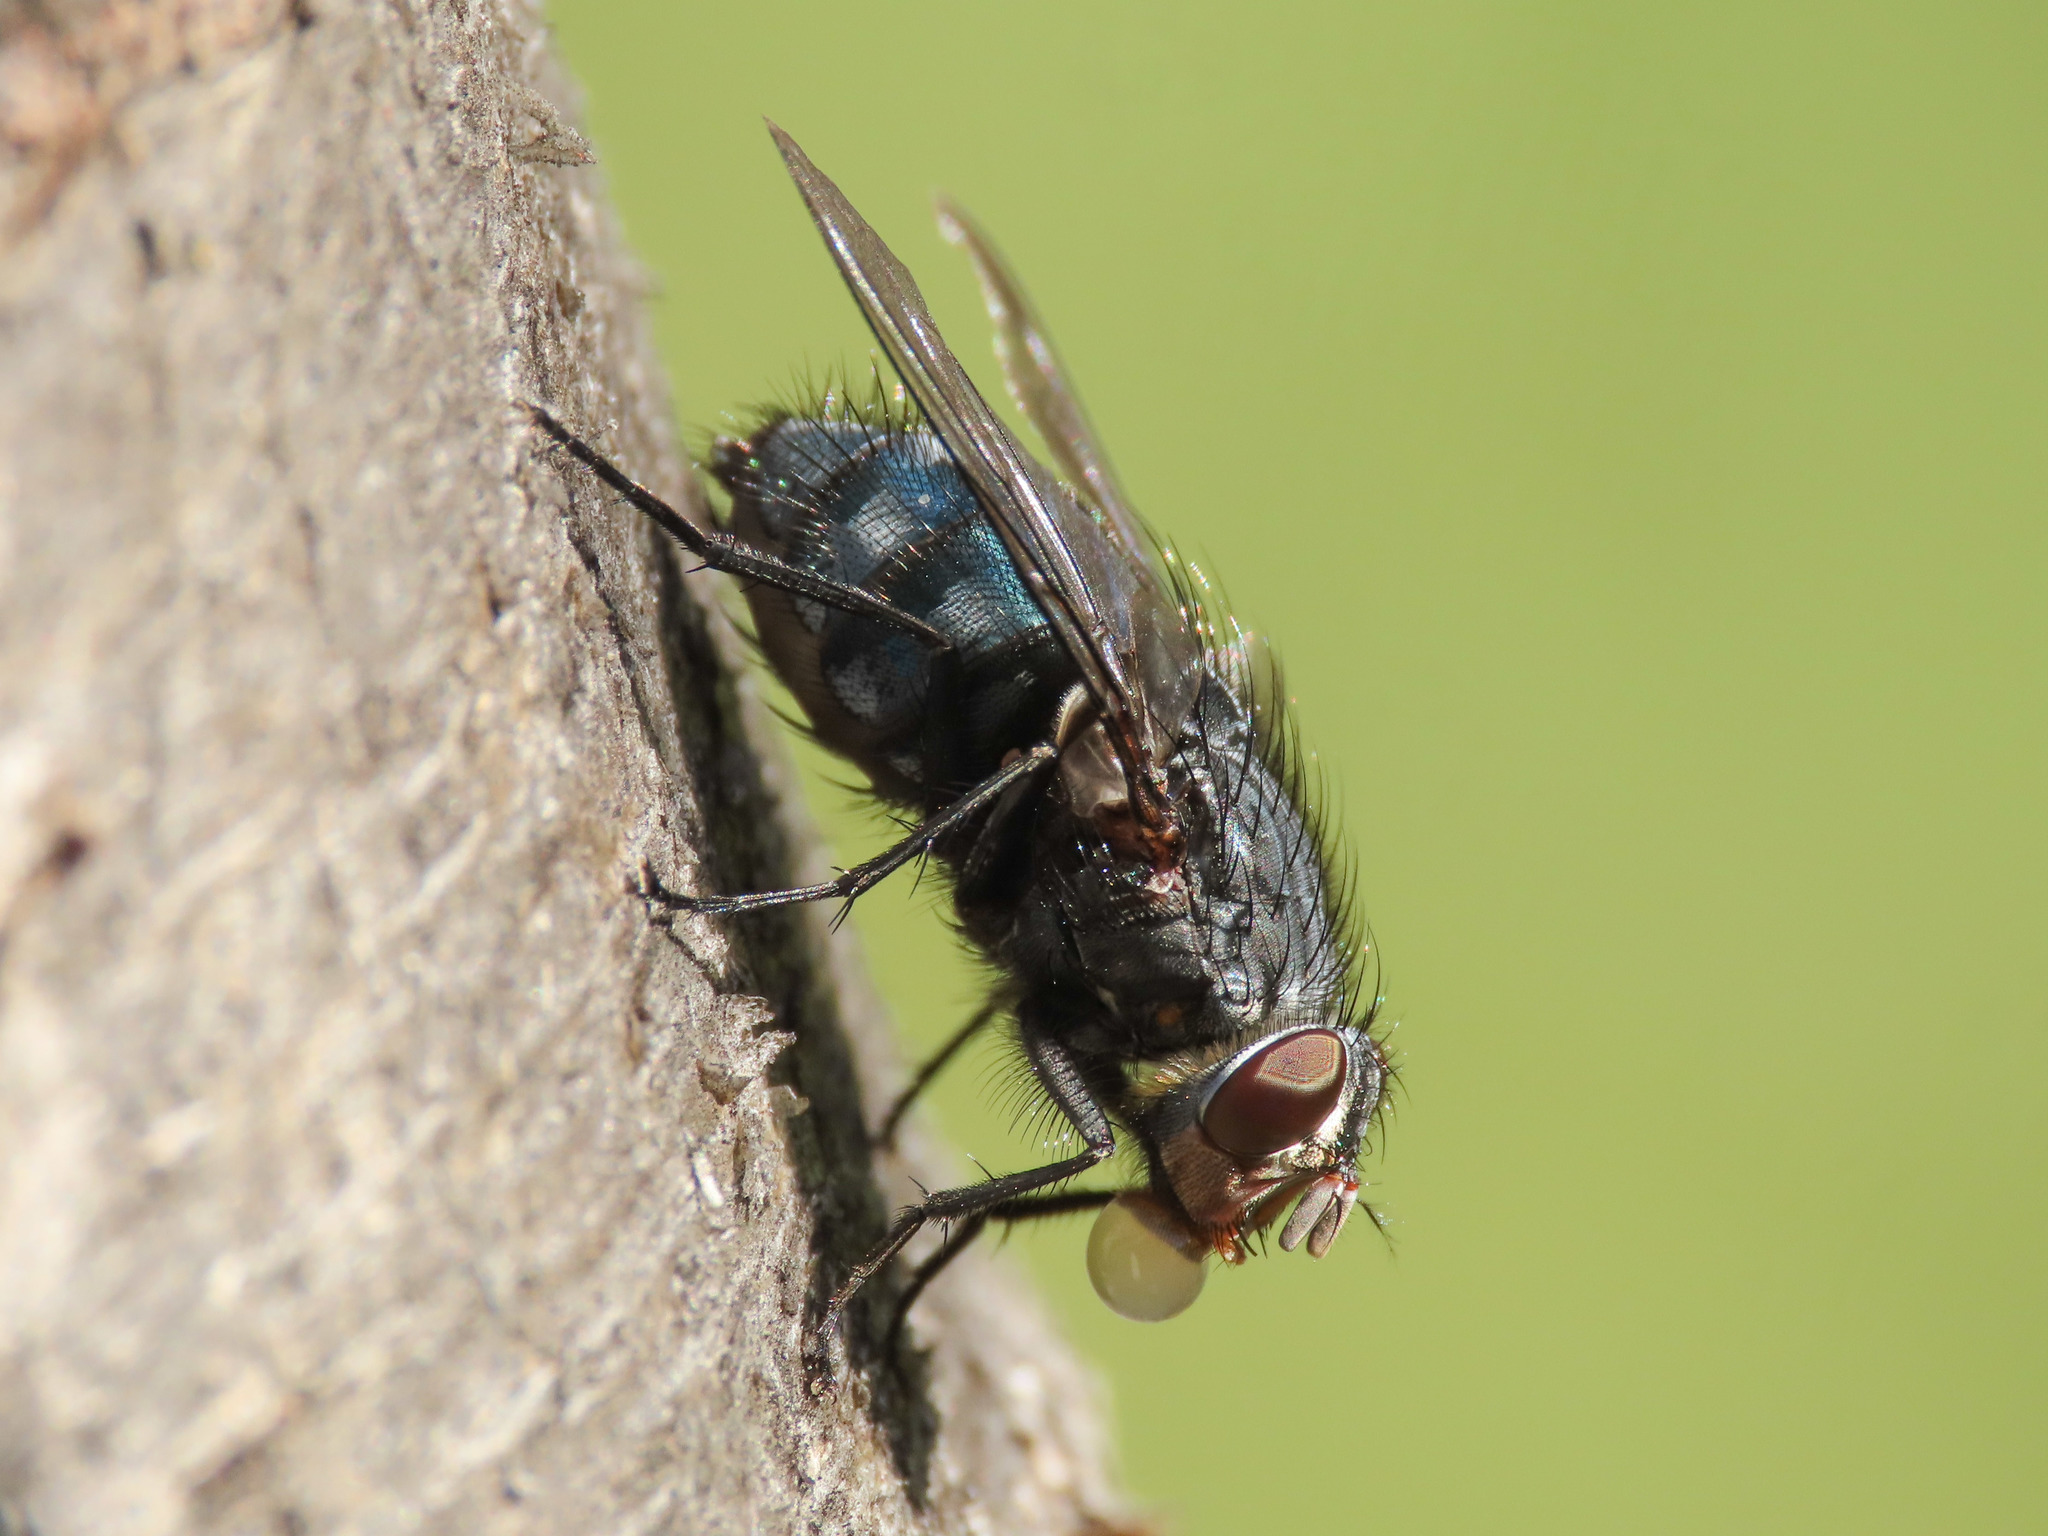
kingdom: Animalia
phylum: Arthropoda
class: Insecta
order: Diptera
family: Calliphoridae
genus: Calliphora
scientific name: Calliphora vicina
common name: Common blow flie
